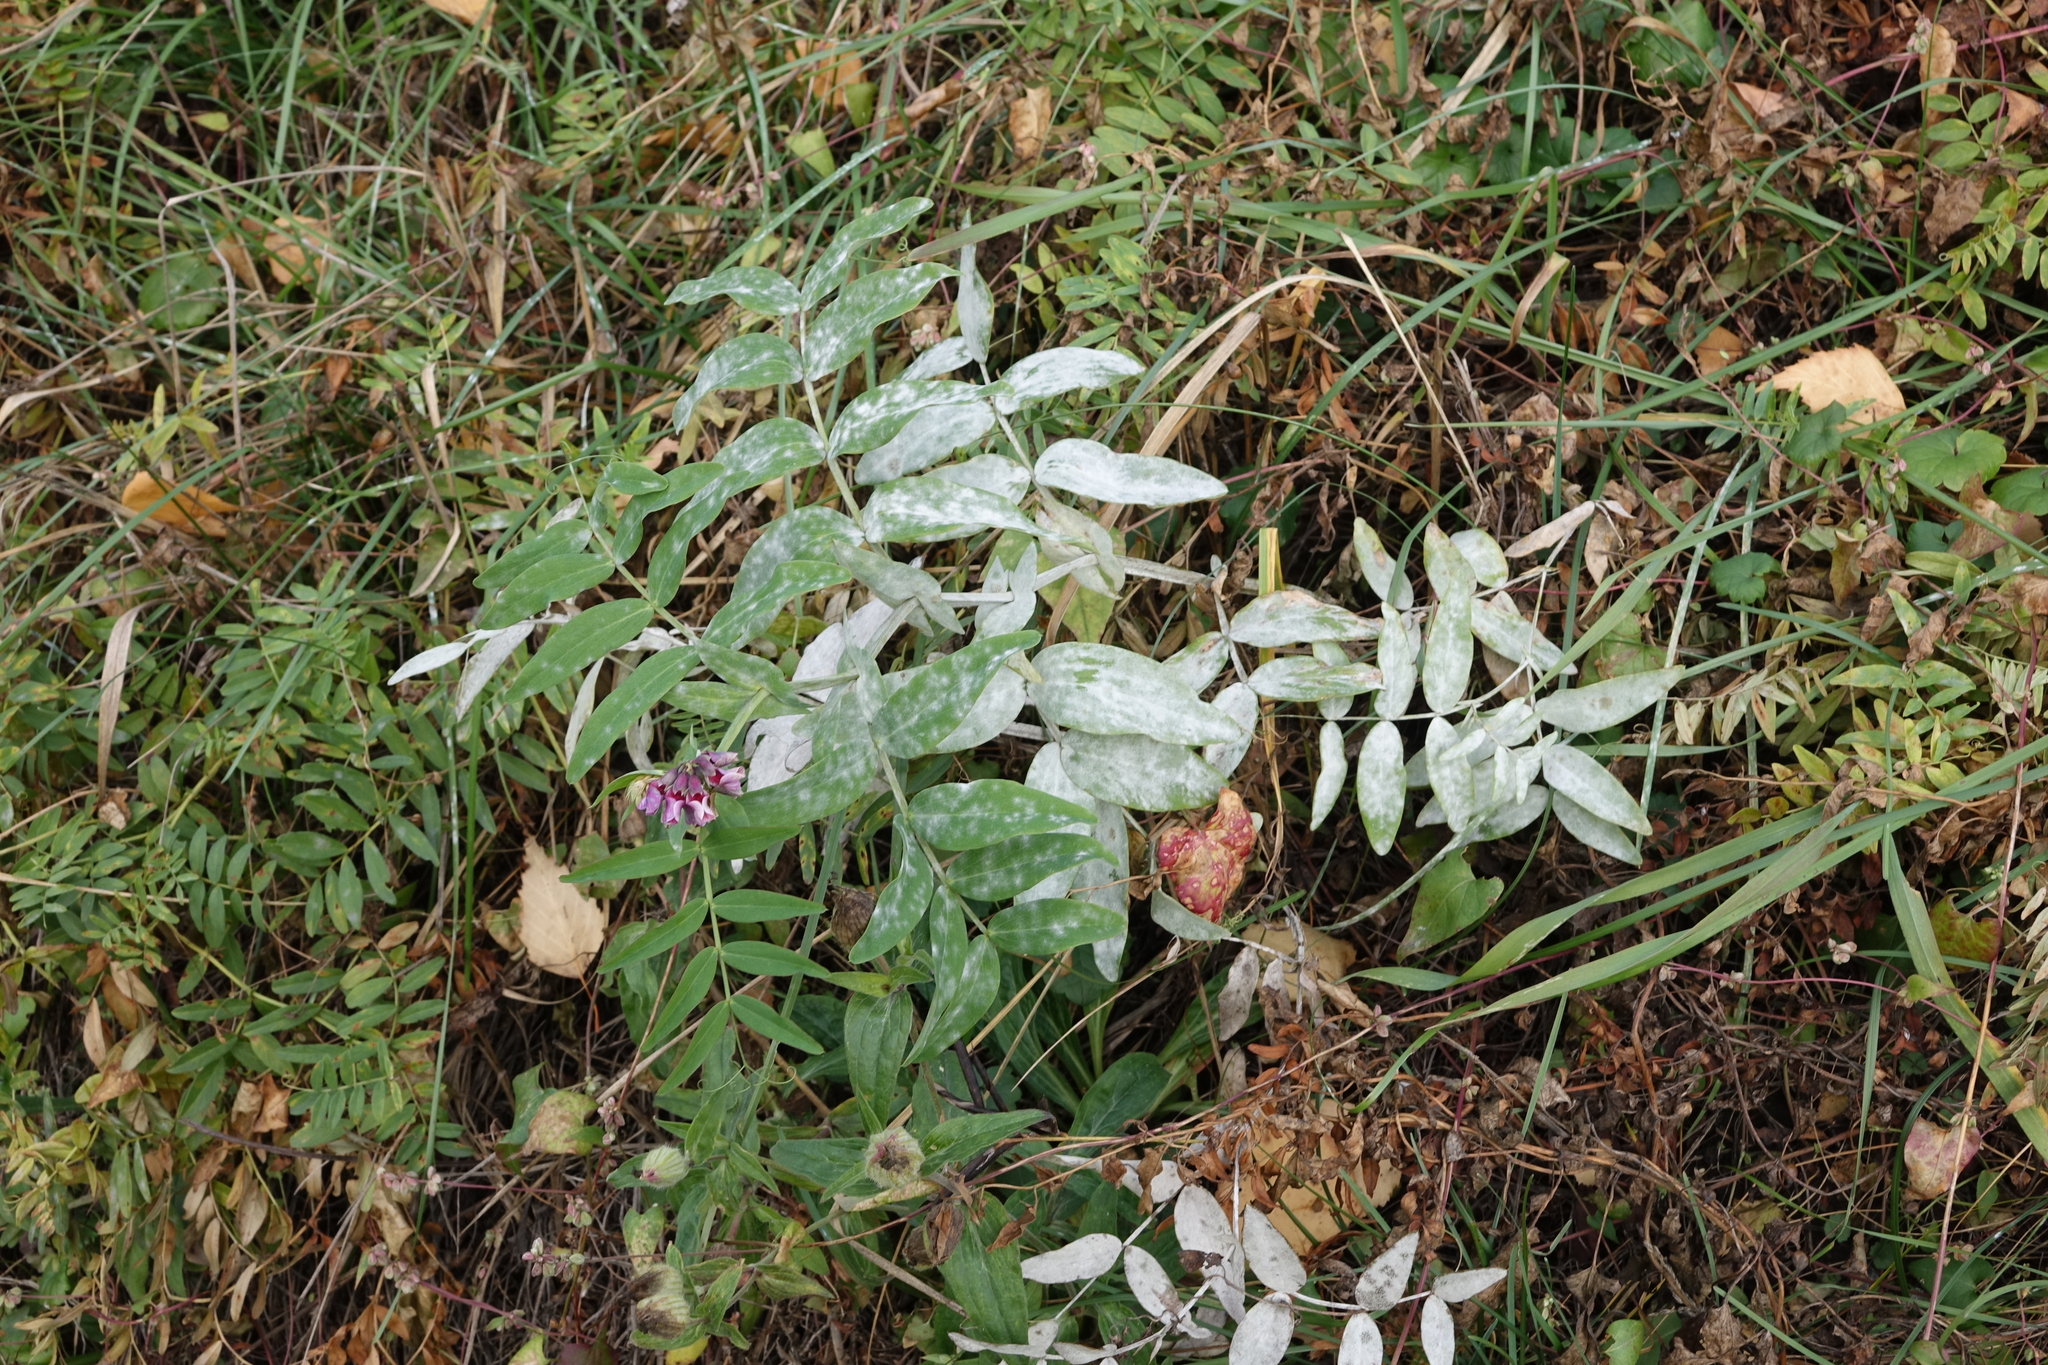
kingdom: Plantae
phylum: Tracheophyta
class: Magnoliopsida
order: Fabales
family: Fabaceae
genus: Lathyrus
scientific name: Lathyrus pisiformis
